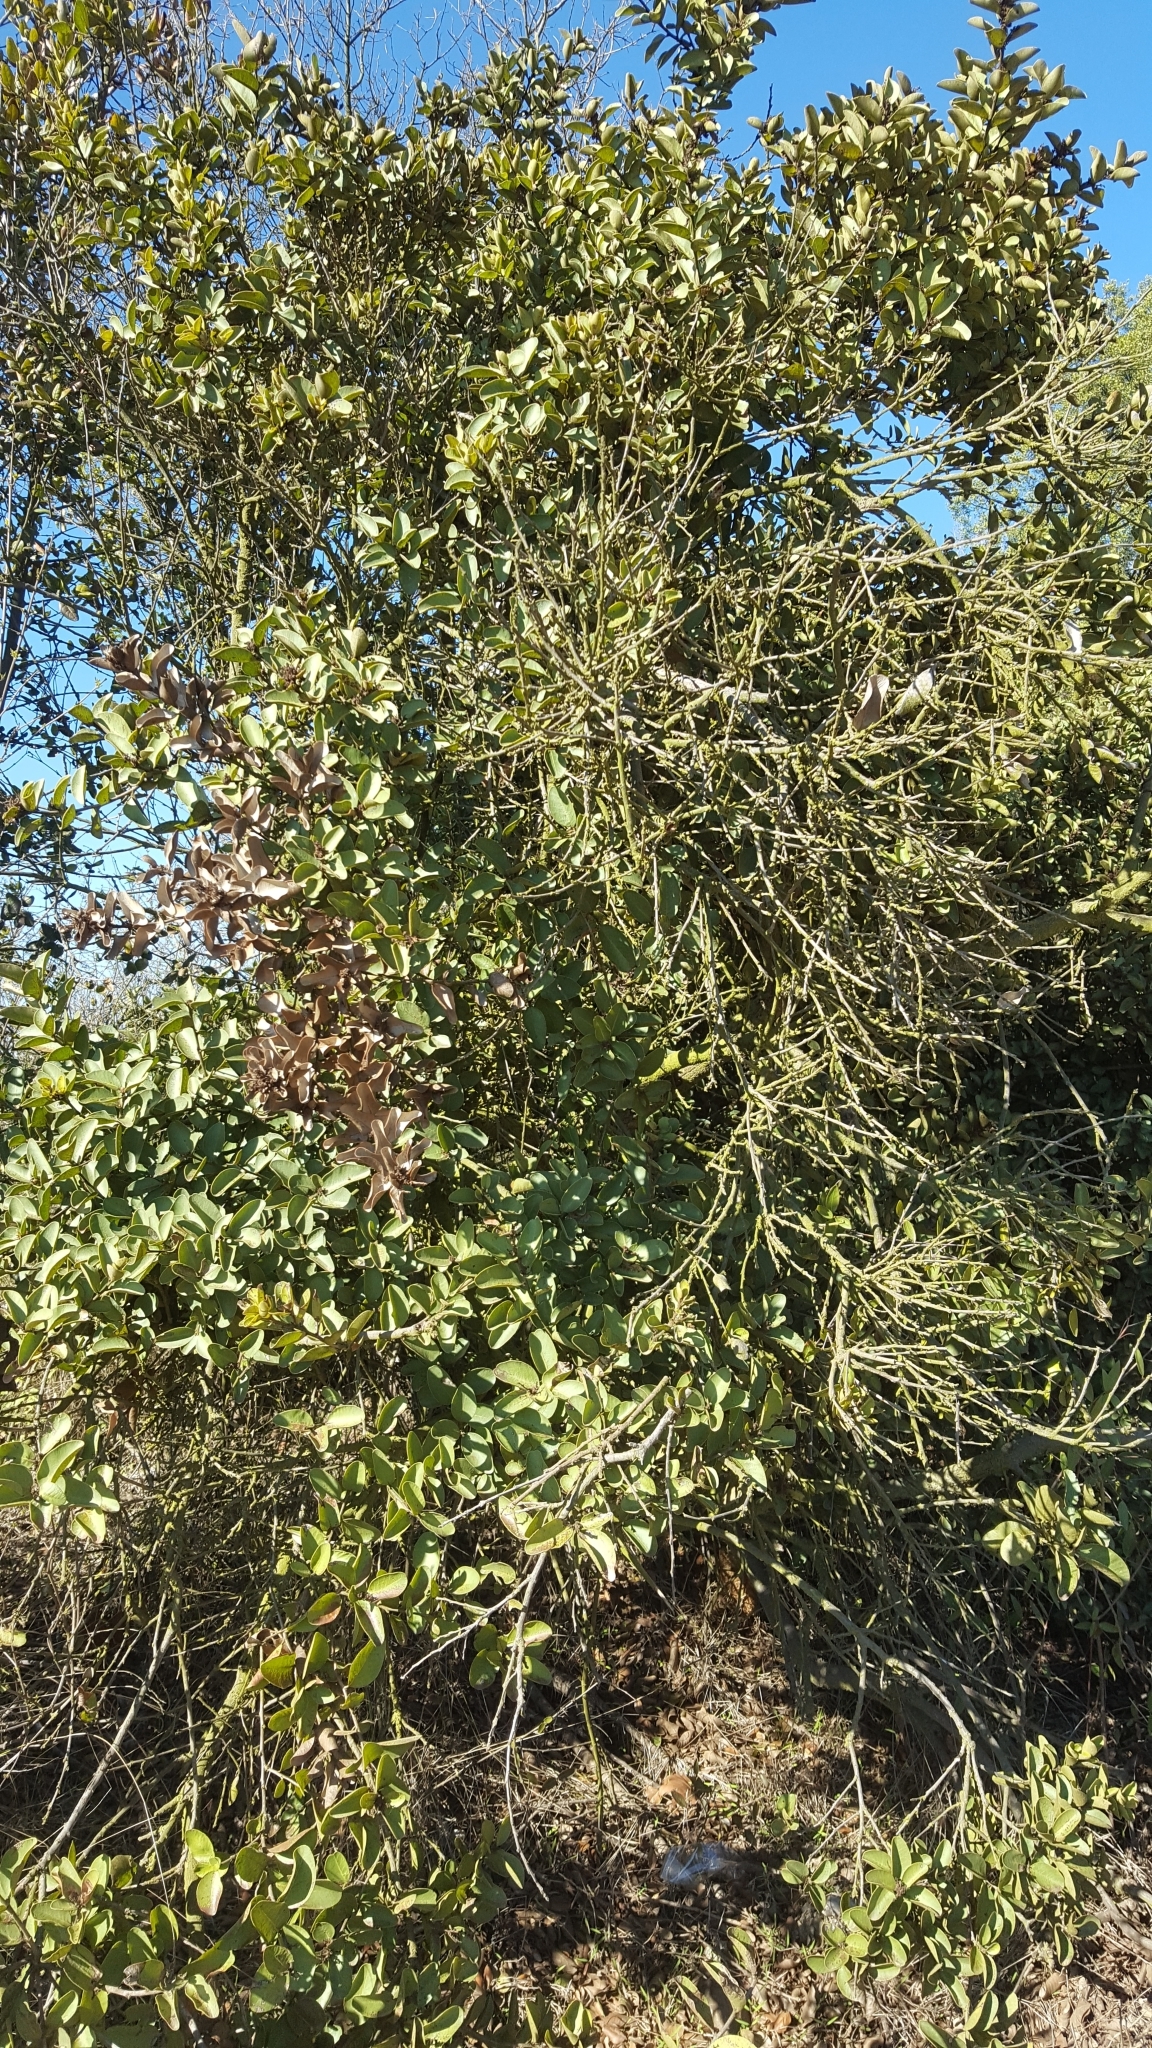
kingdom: Plantae
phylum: Tracheophyta
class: Magnoliopsida
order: Sapindales
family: Anacardiaceae
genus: Lithraea
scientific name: Lithraea caustica
